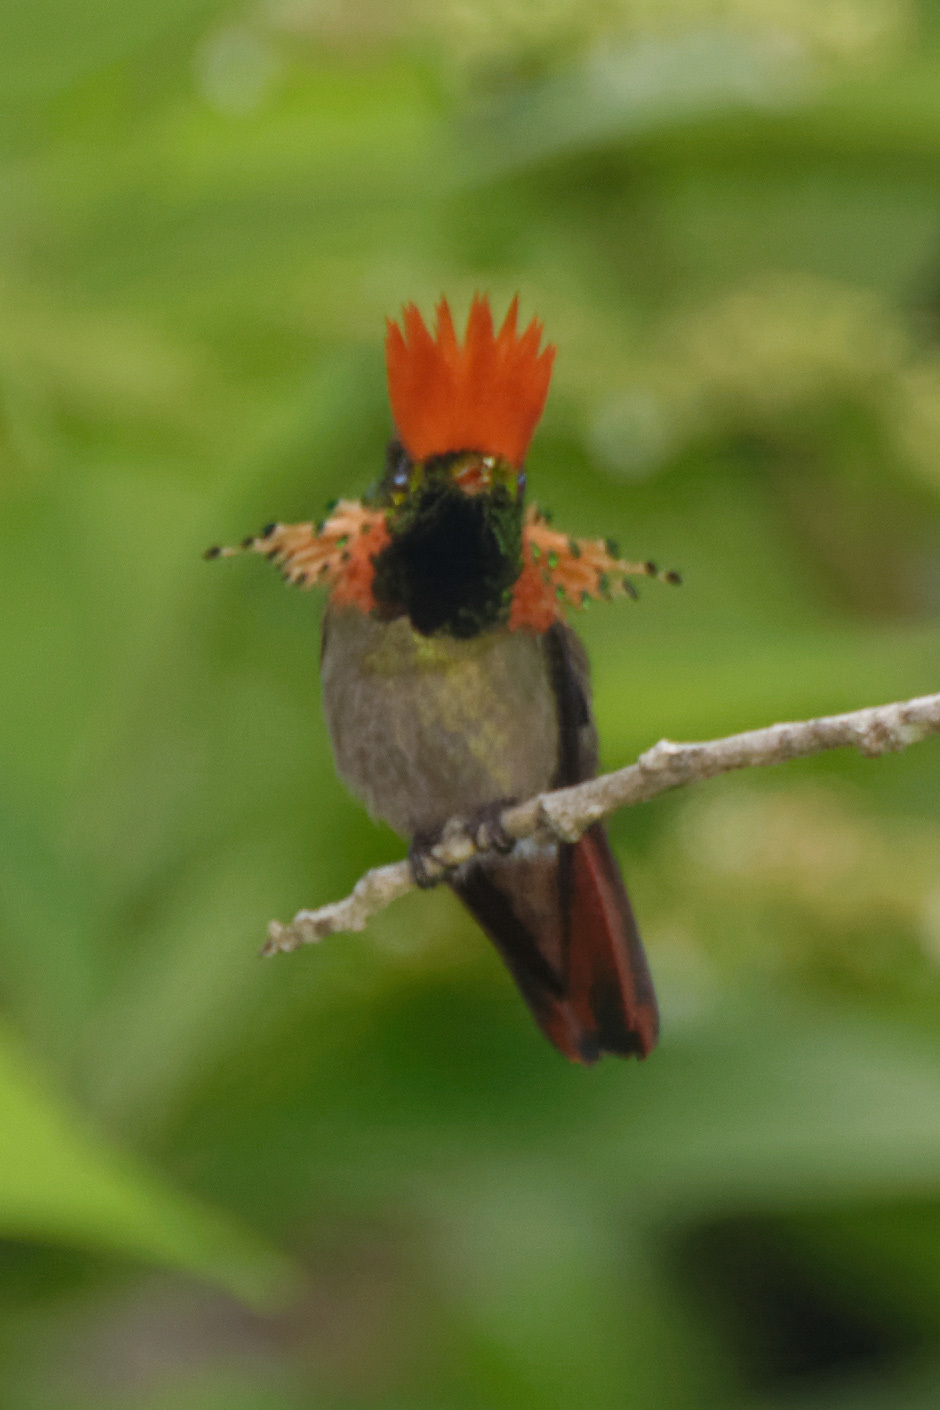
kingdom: Animalia
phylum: Chordata
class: Aves
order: Apodiformes
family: Trochilidae
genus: Lophornis
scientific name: Lophornis ornatus
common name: Tufted coquette
